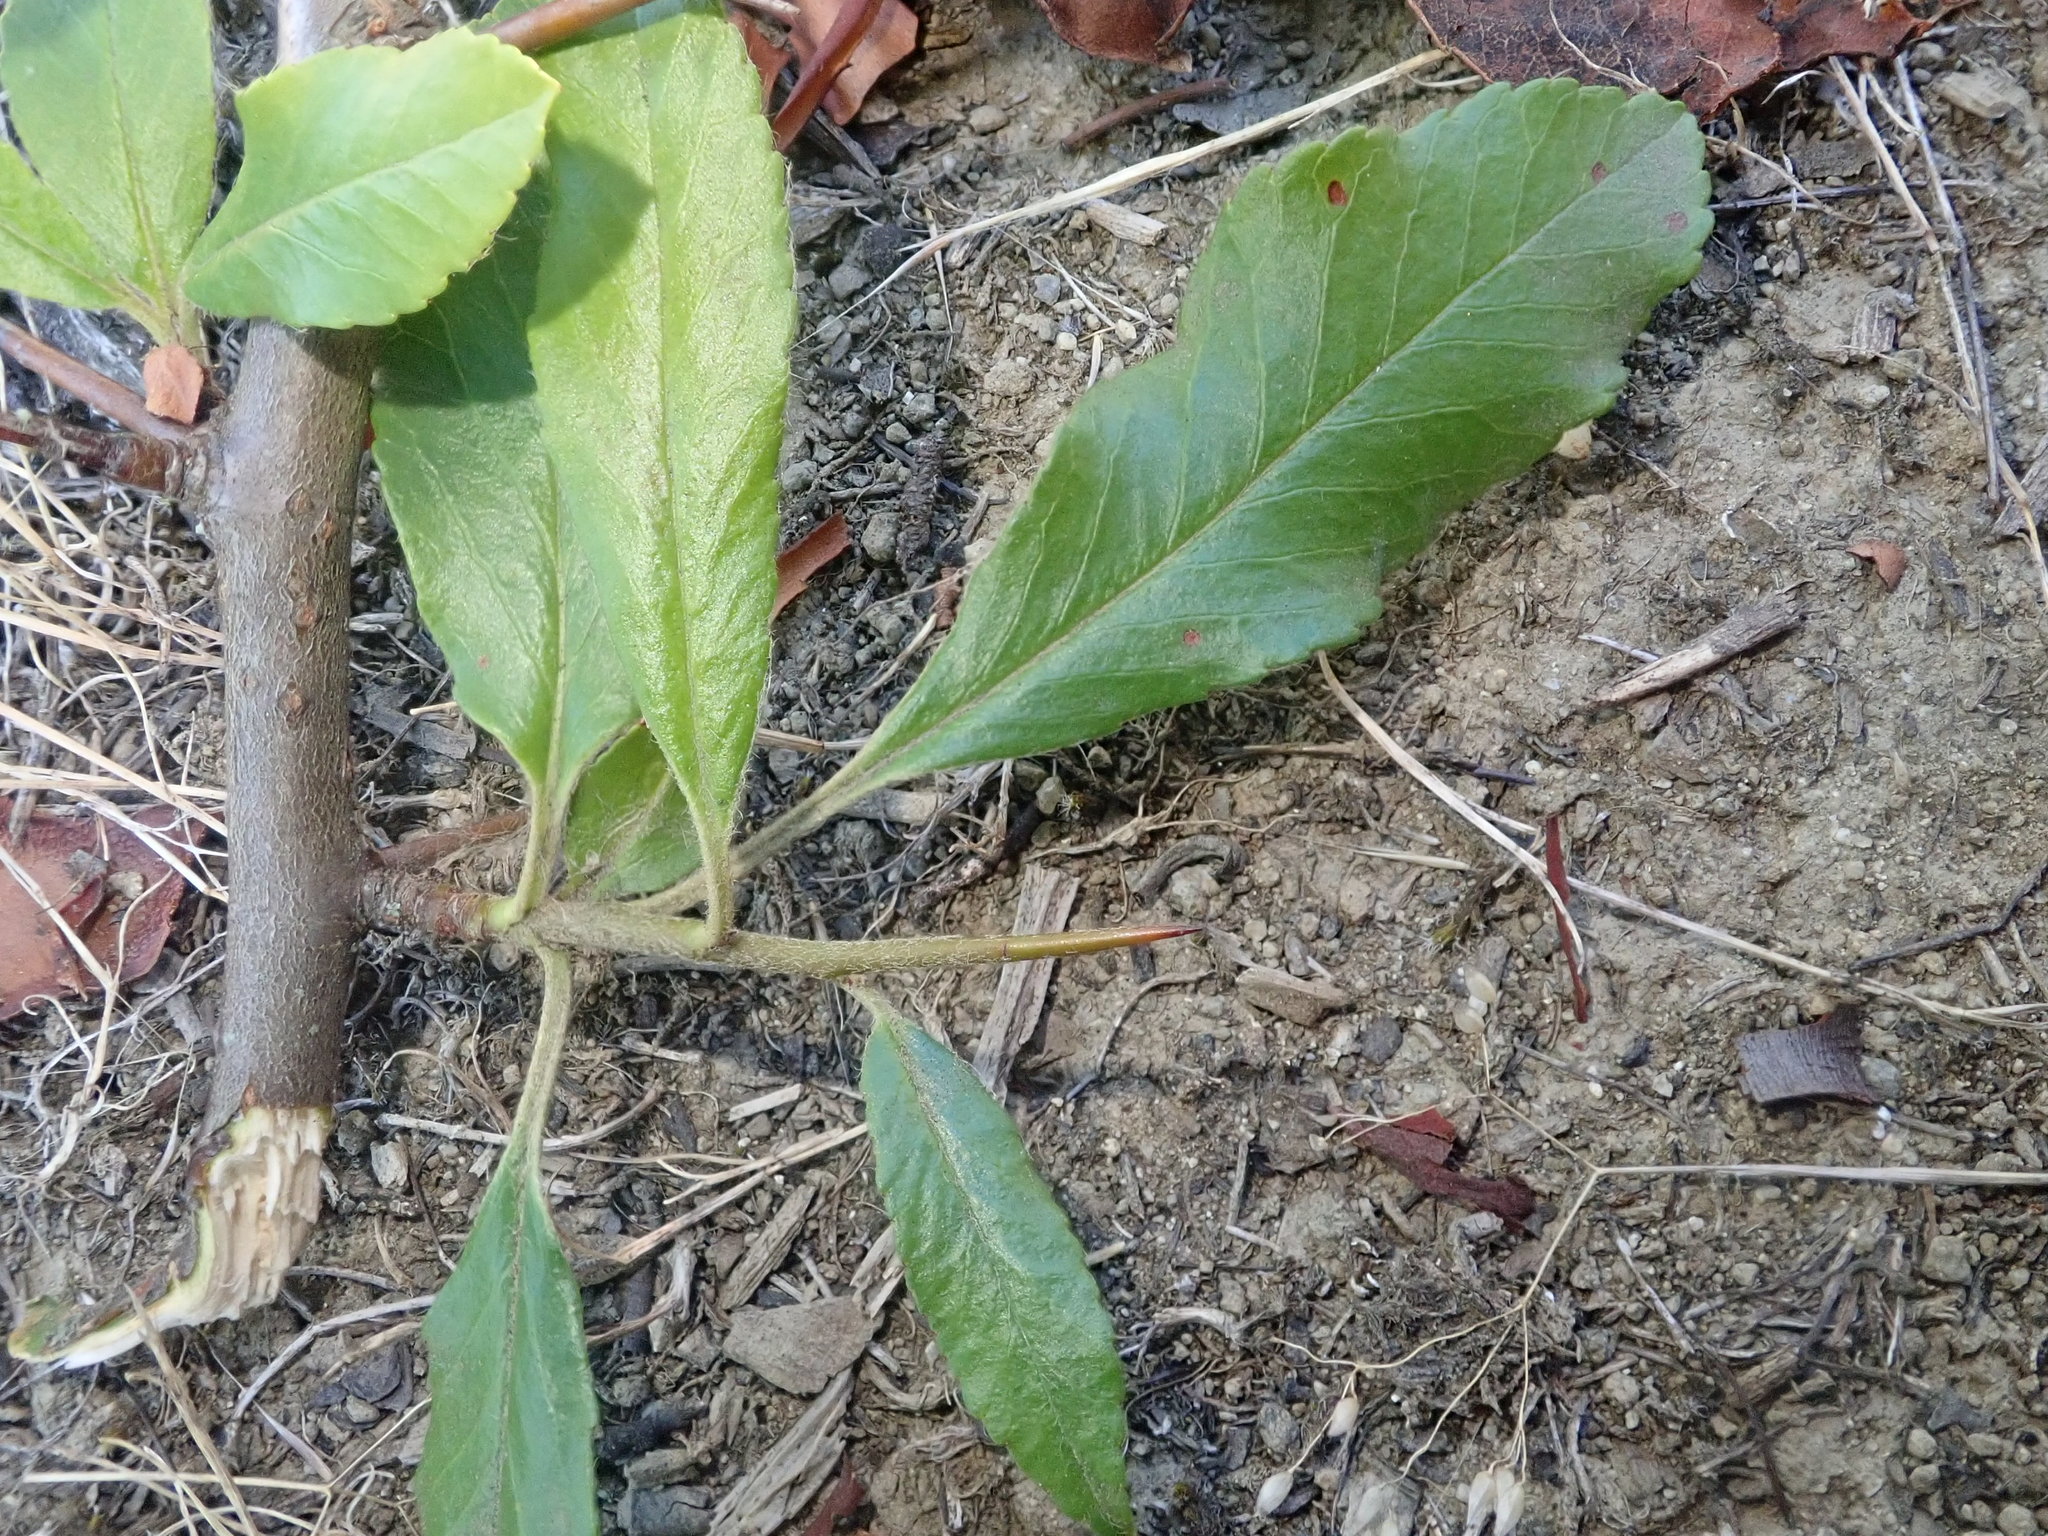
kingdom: Plantae
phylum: Tracheophyta
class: Magnoliopsida
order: Rosales
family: Rosaceae
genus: Pyracantha
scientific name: Pyracantha coccinea
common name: Firethorn
